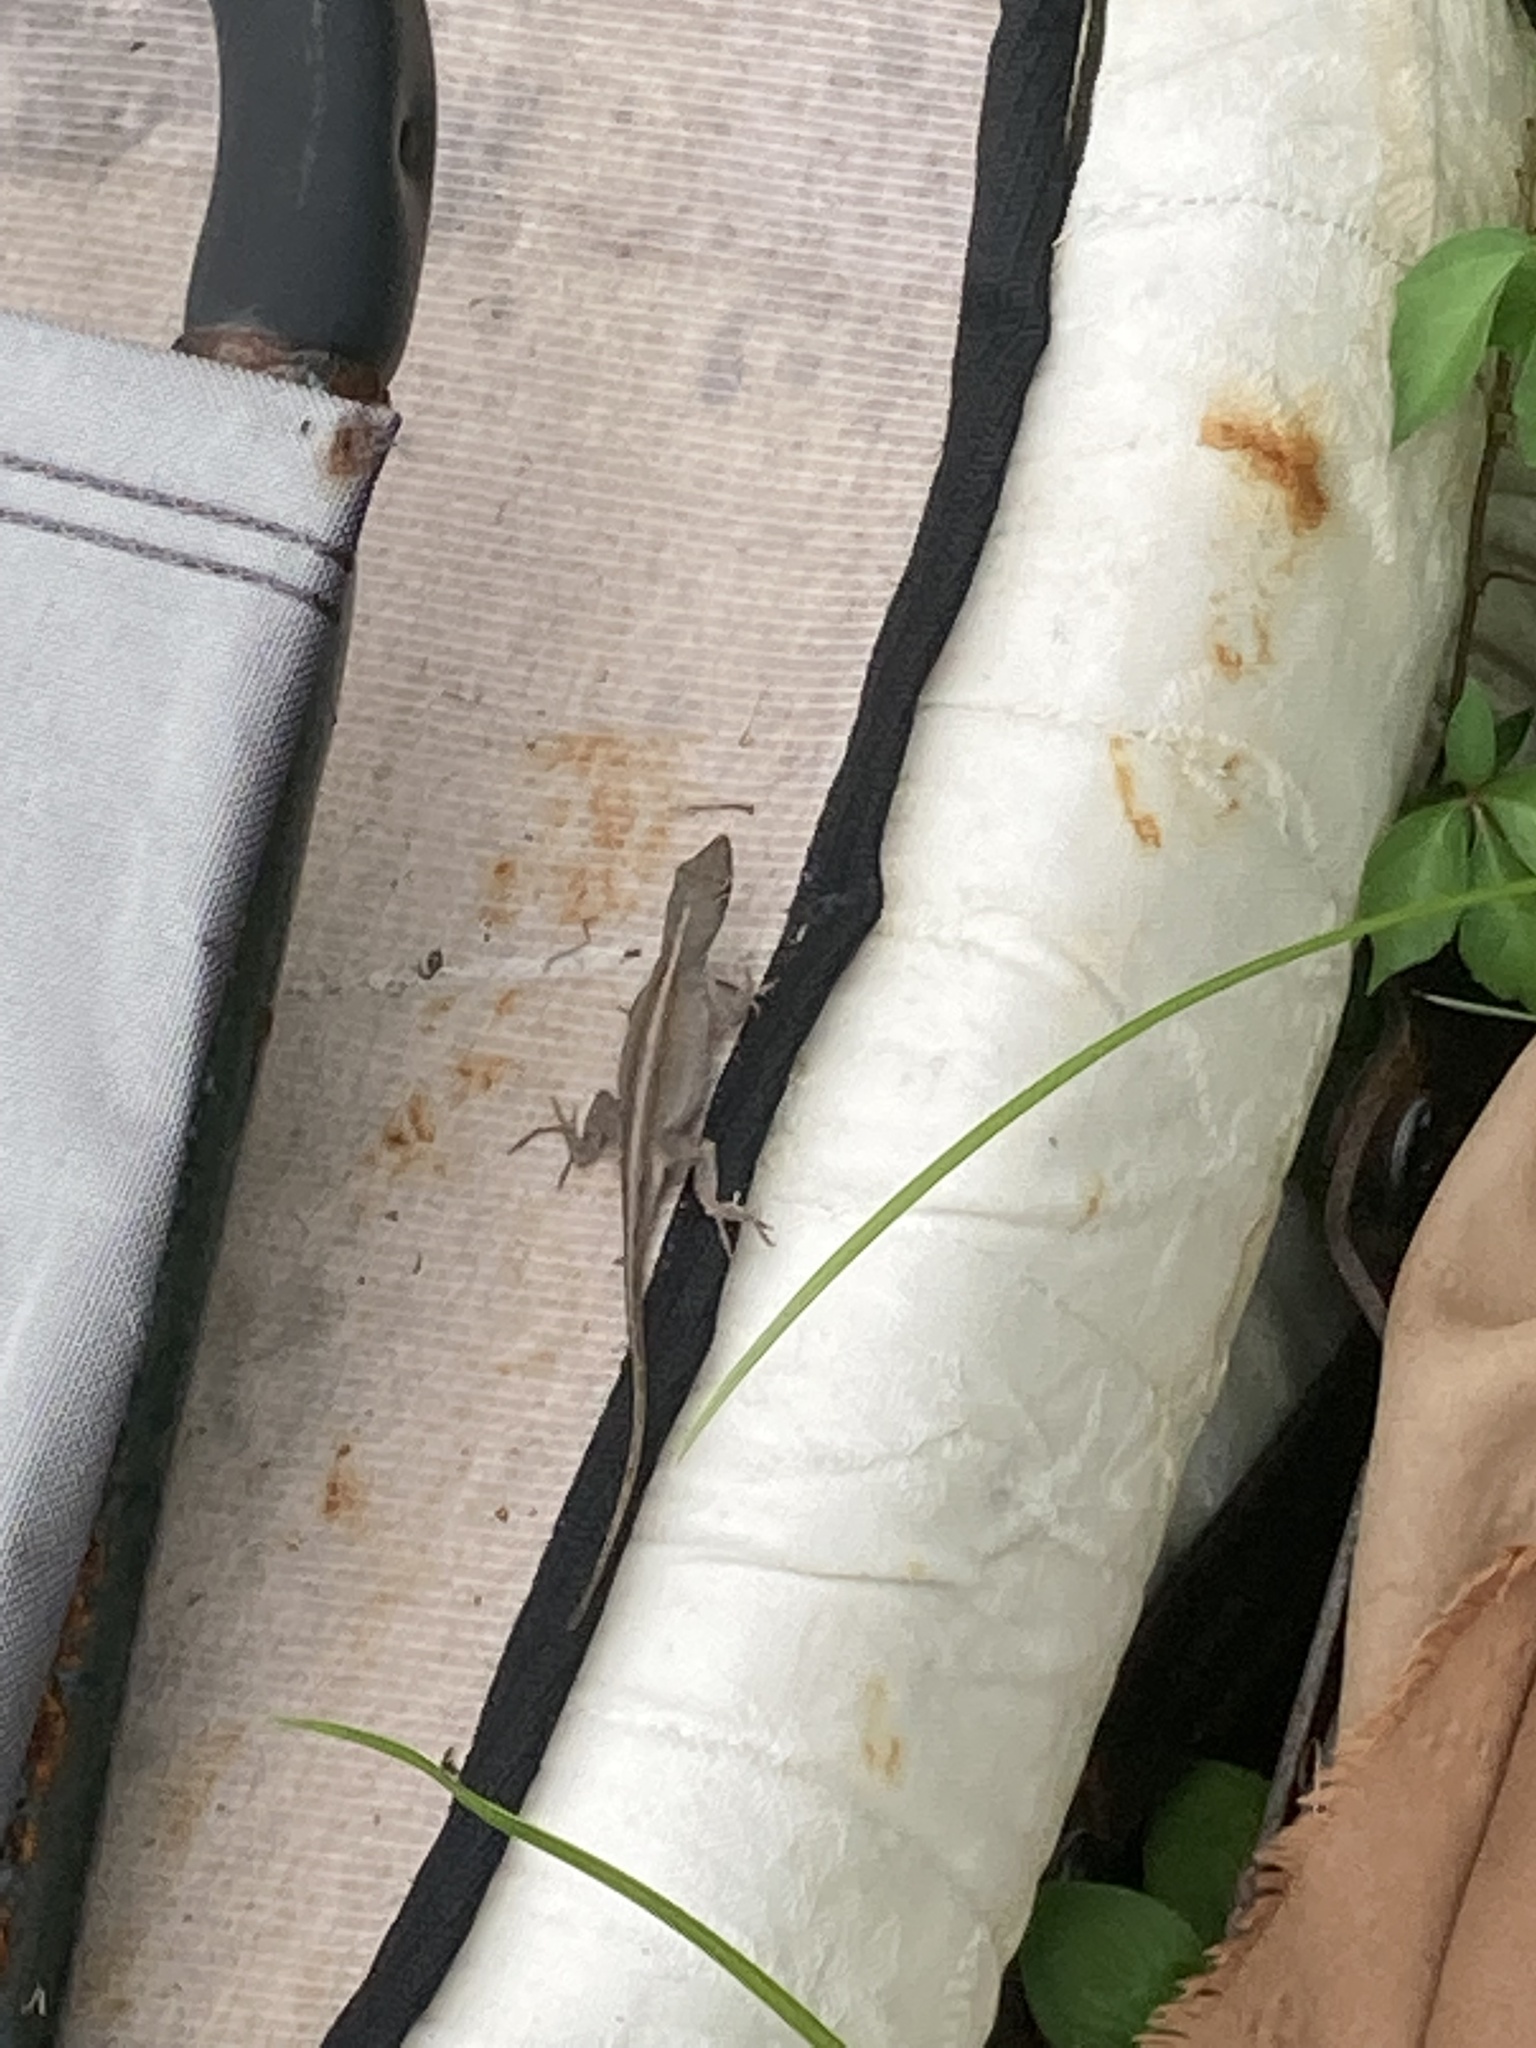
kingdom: Animalia
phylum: Chordata
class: Squamata
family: Dactyloidae
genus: Anolis
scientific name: Anolis sagrei
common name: Brown anole
